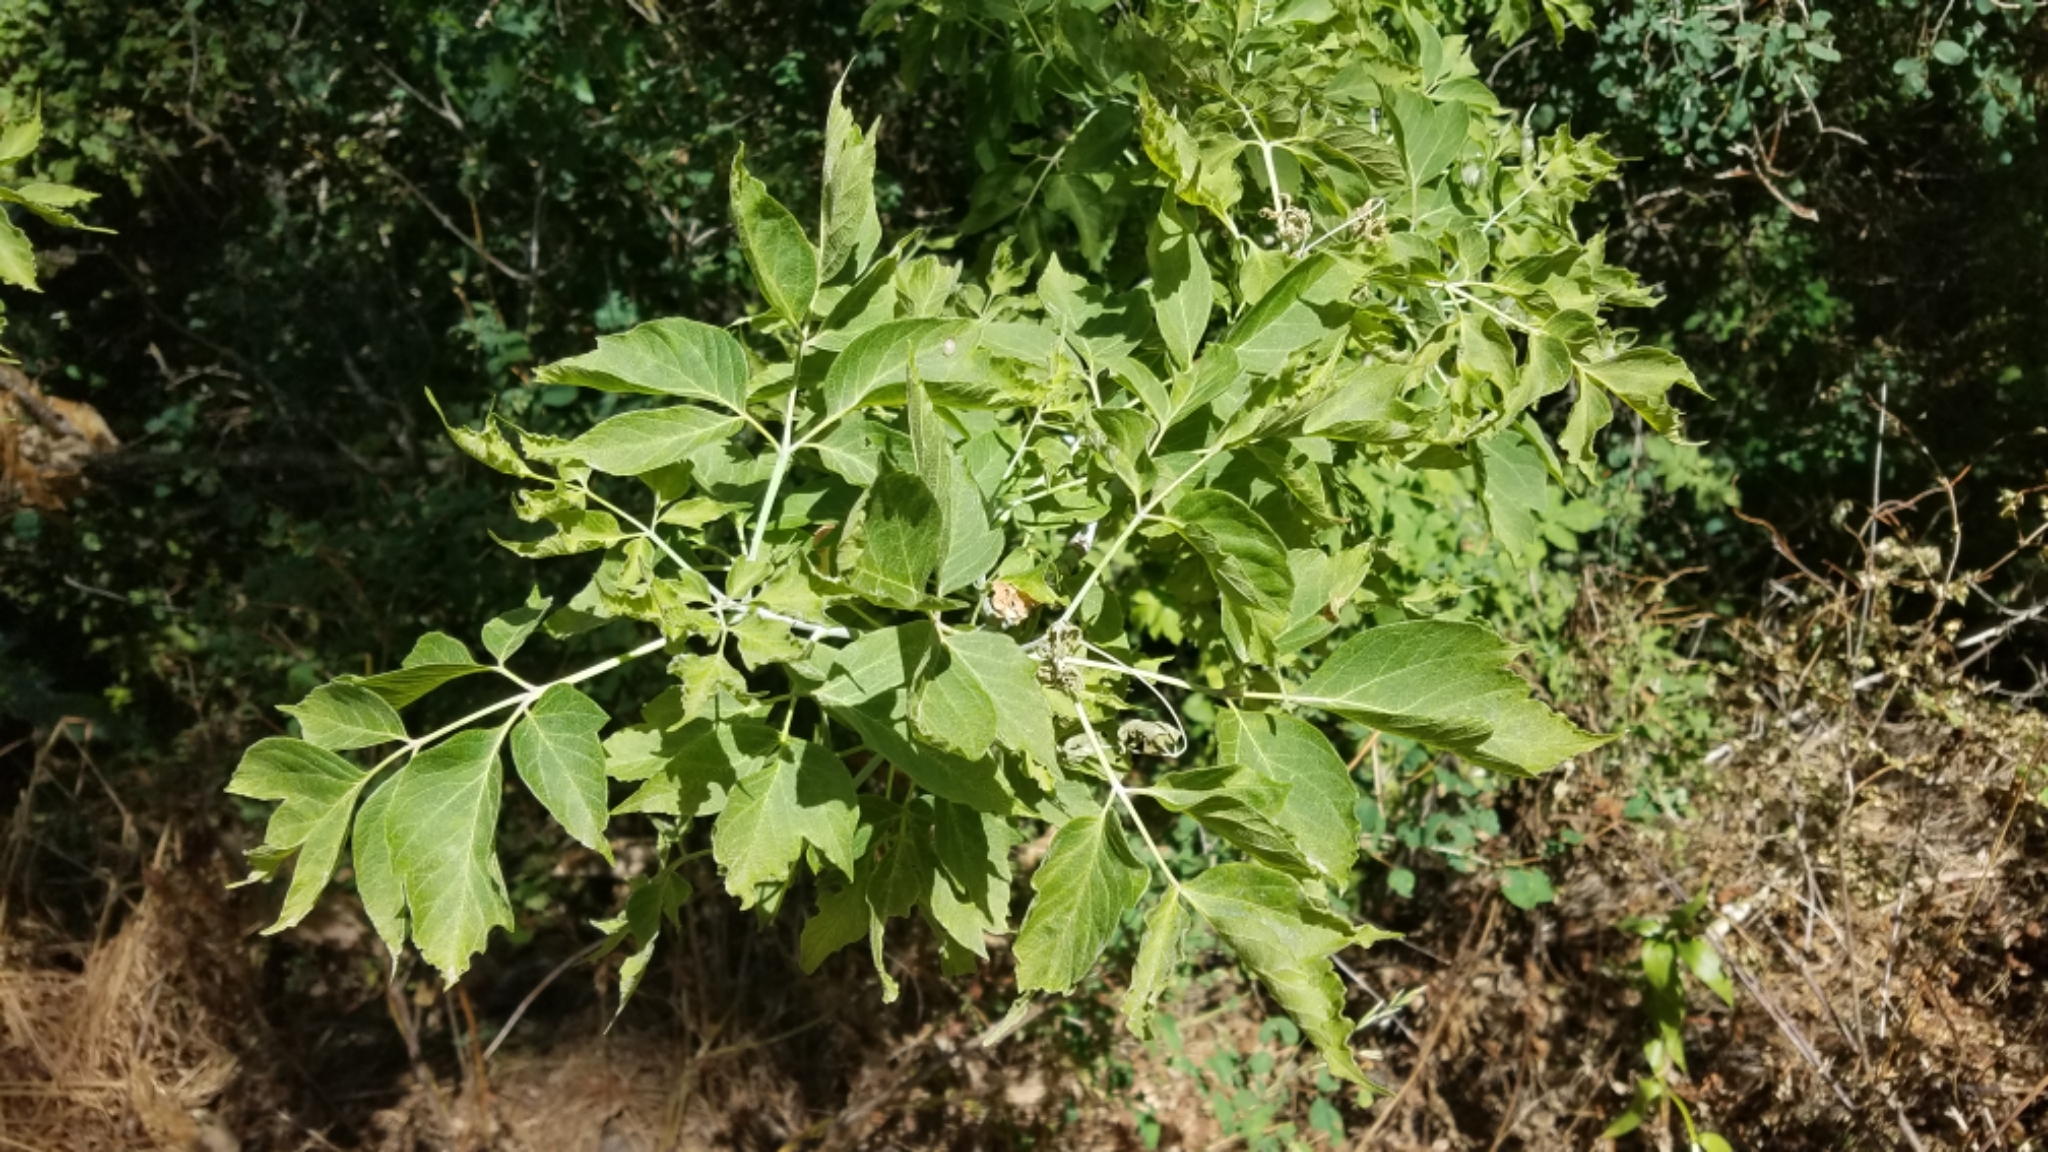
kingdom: Plantae
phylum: Tracheophyta
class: Magnoliopsida
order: Sapindales
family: Sapindaceae
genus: Acer
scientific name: Acer negundo
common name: Ashleaf maple
